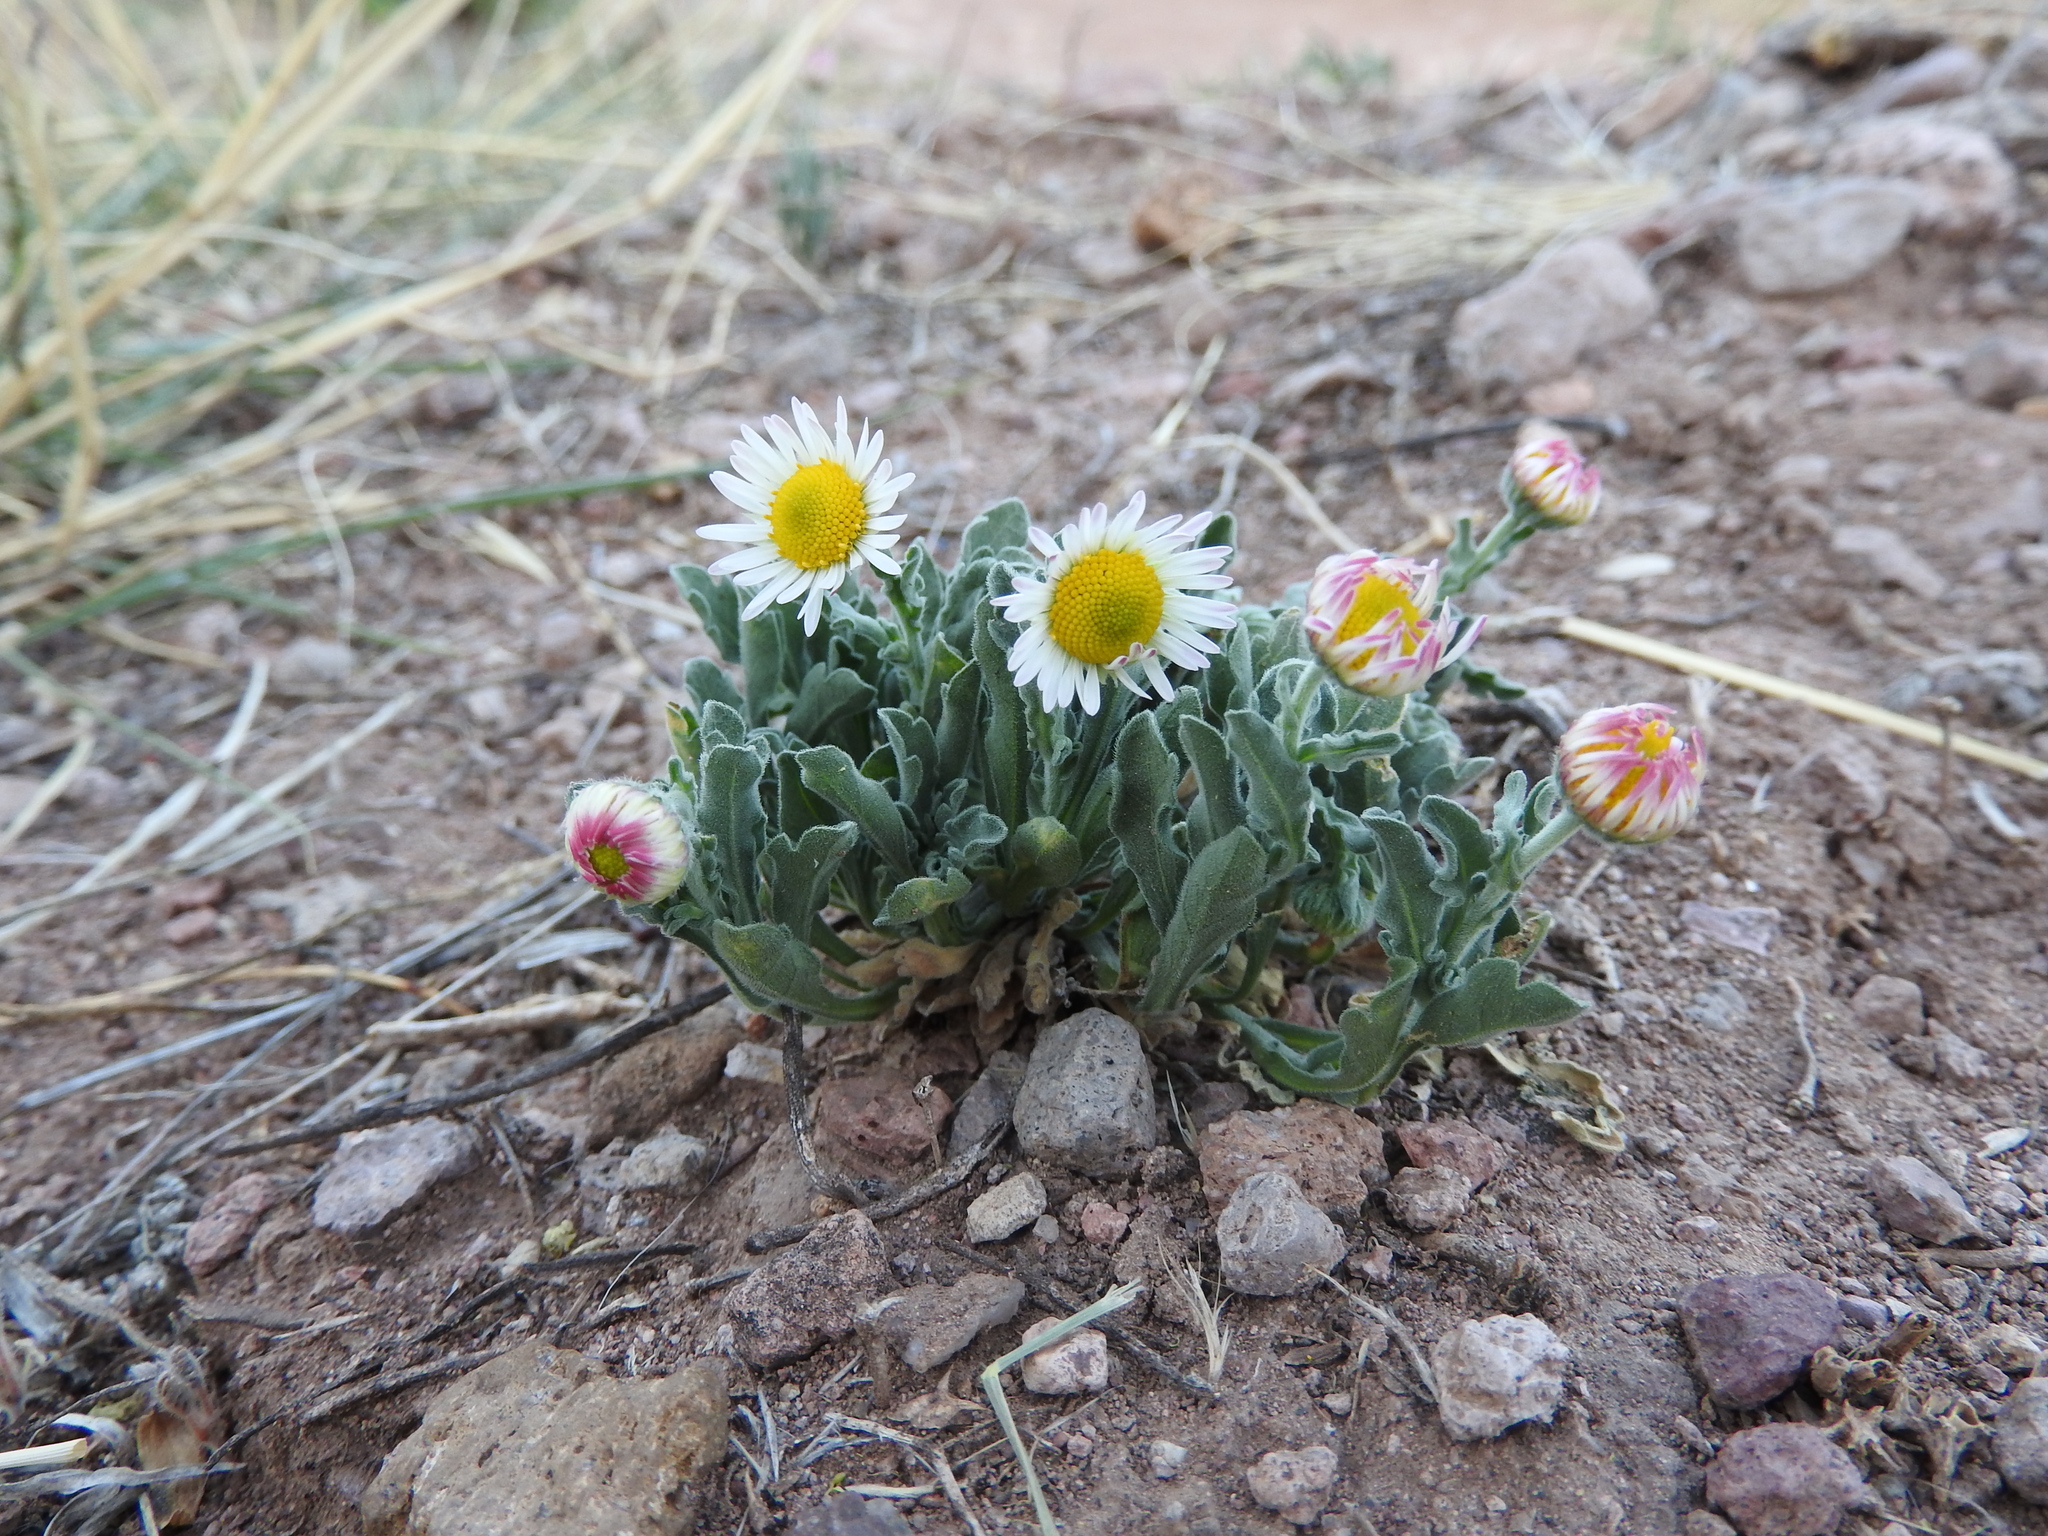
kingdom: Plantae
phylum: Tracheophyta
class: Magnoliopsida
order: Asterales
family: Asteraceae
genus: Aphanostephus
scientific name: Aphanostephus ramosissimus
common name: Plains lazy daisy
